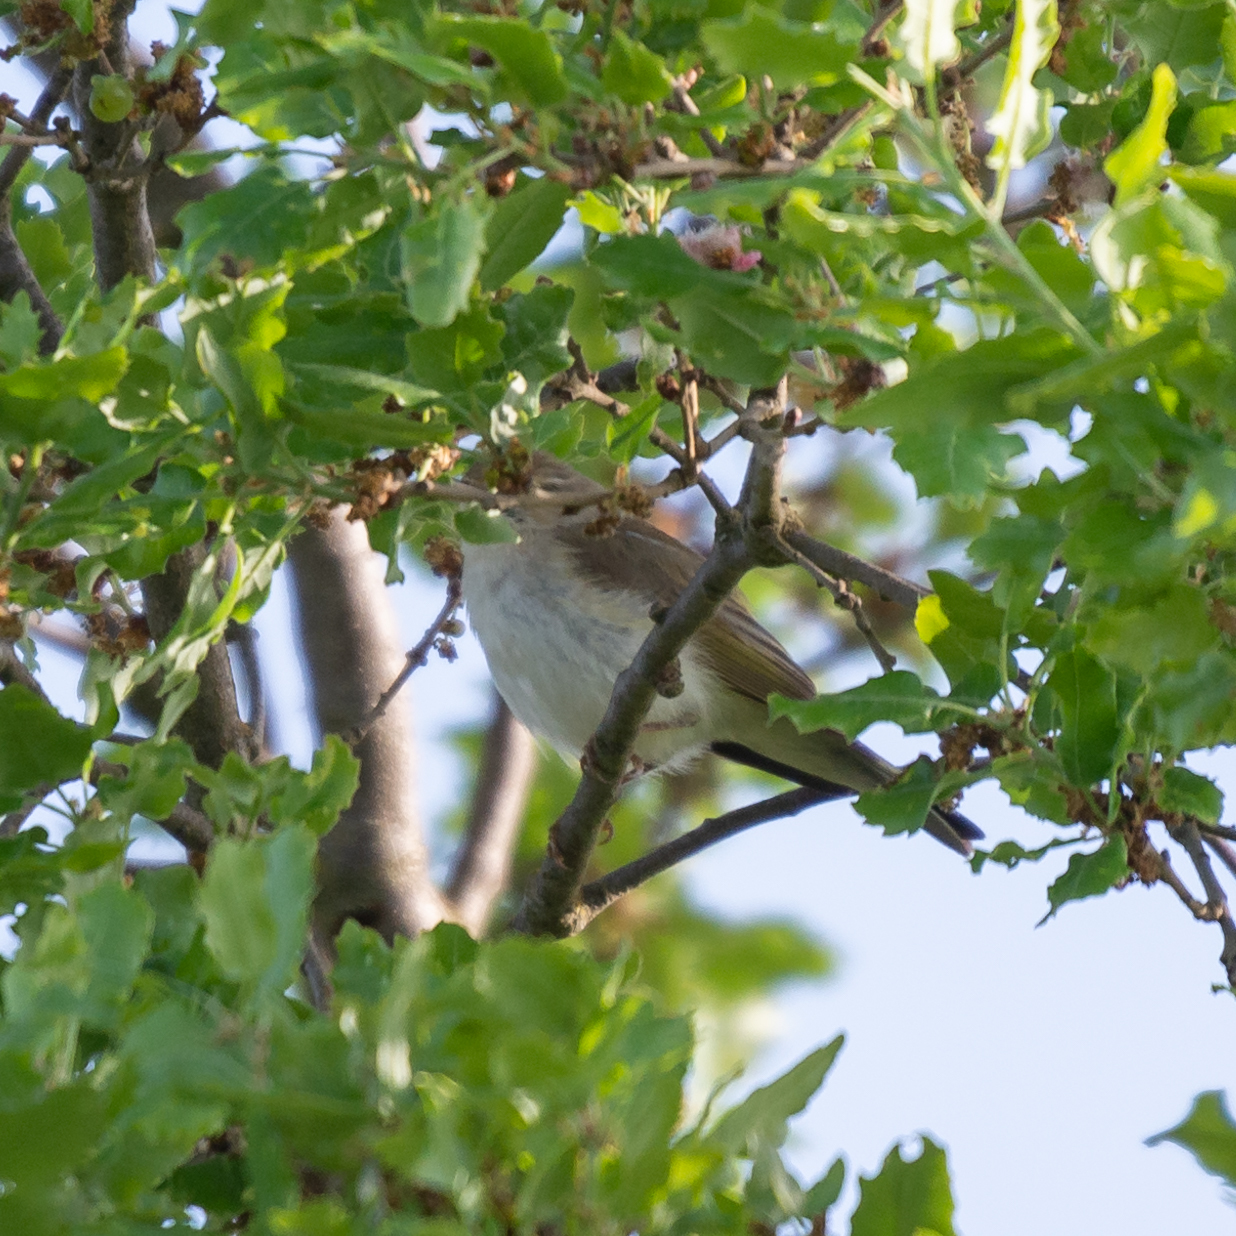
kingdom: Animalia
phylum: Chordata
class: Aves
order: Passeriformes
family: Phylloscopidae
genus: Phylloscopus
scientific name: Phylloscopus bonelli
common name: Western bonelli's warbler
